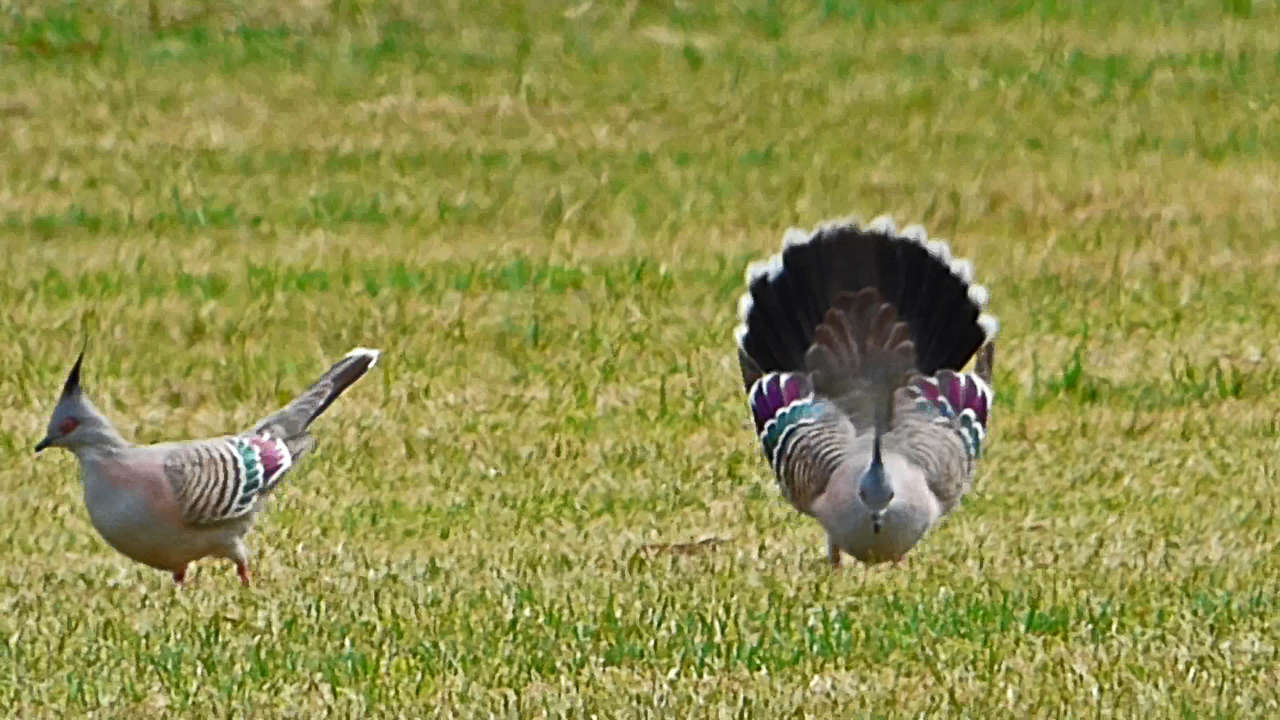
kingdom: Animalia
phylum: Chordata
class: Aves
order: Columbiformes
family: Columbidae
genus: Ocyphaps
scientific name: Ocyphaps lophotes
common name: Crested pigeon
